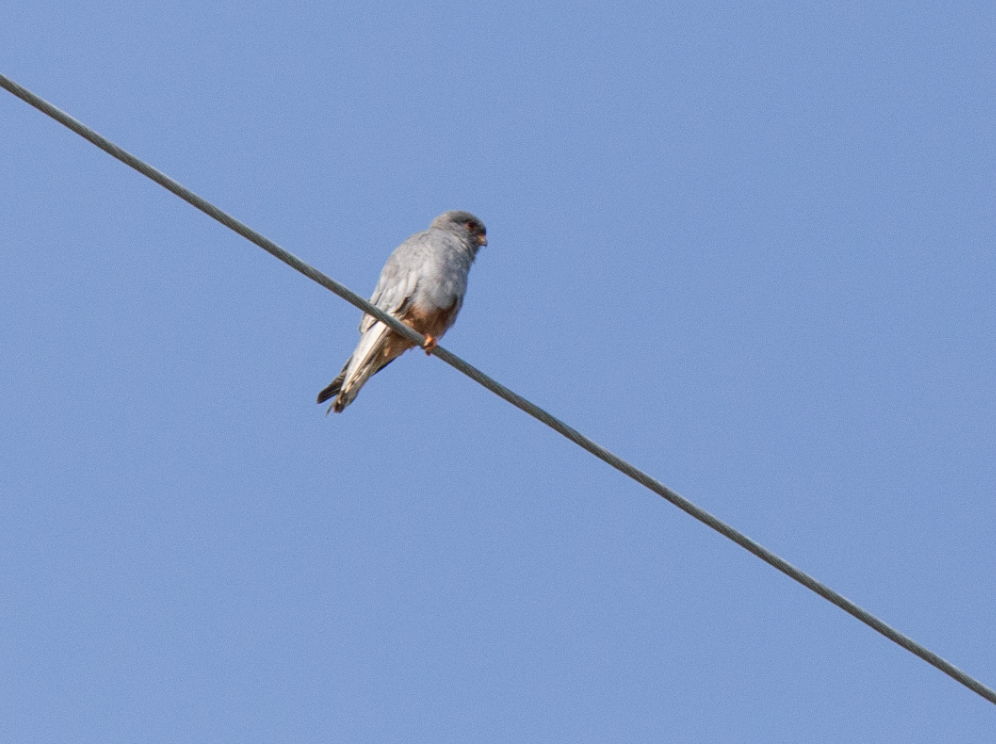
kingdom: Animalia
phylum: Chordata
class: Aves
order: Falconiformes
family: Falconidae
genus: Falco
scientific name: Falco vespertinus
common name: Red-footed falcon
